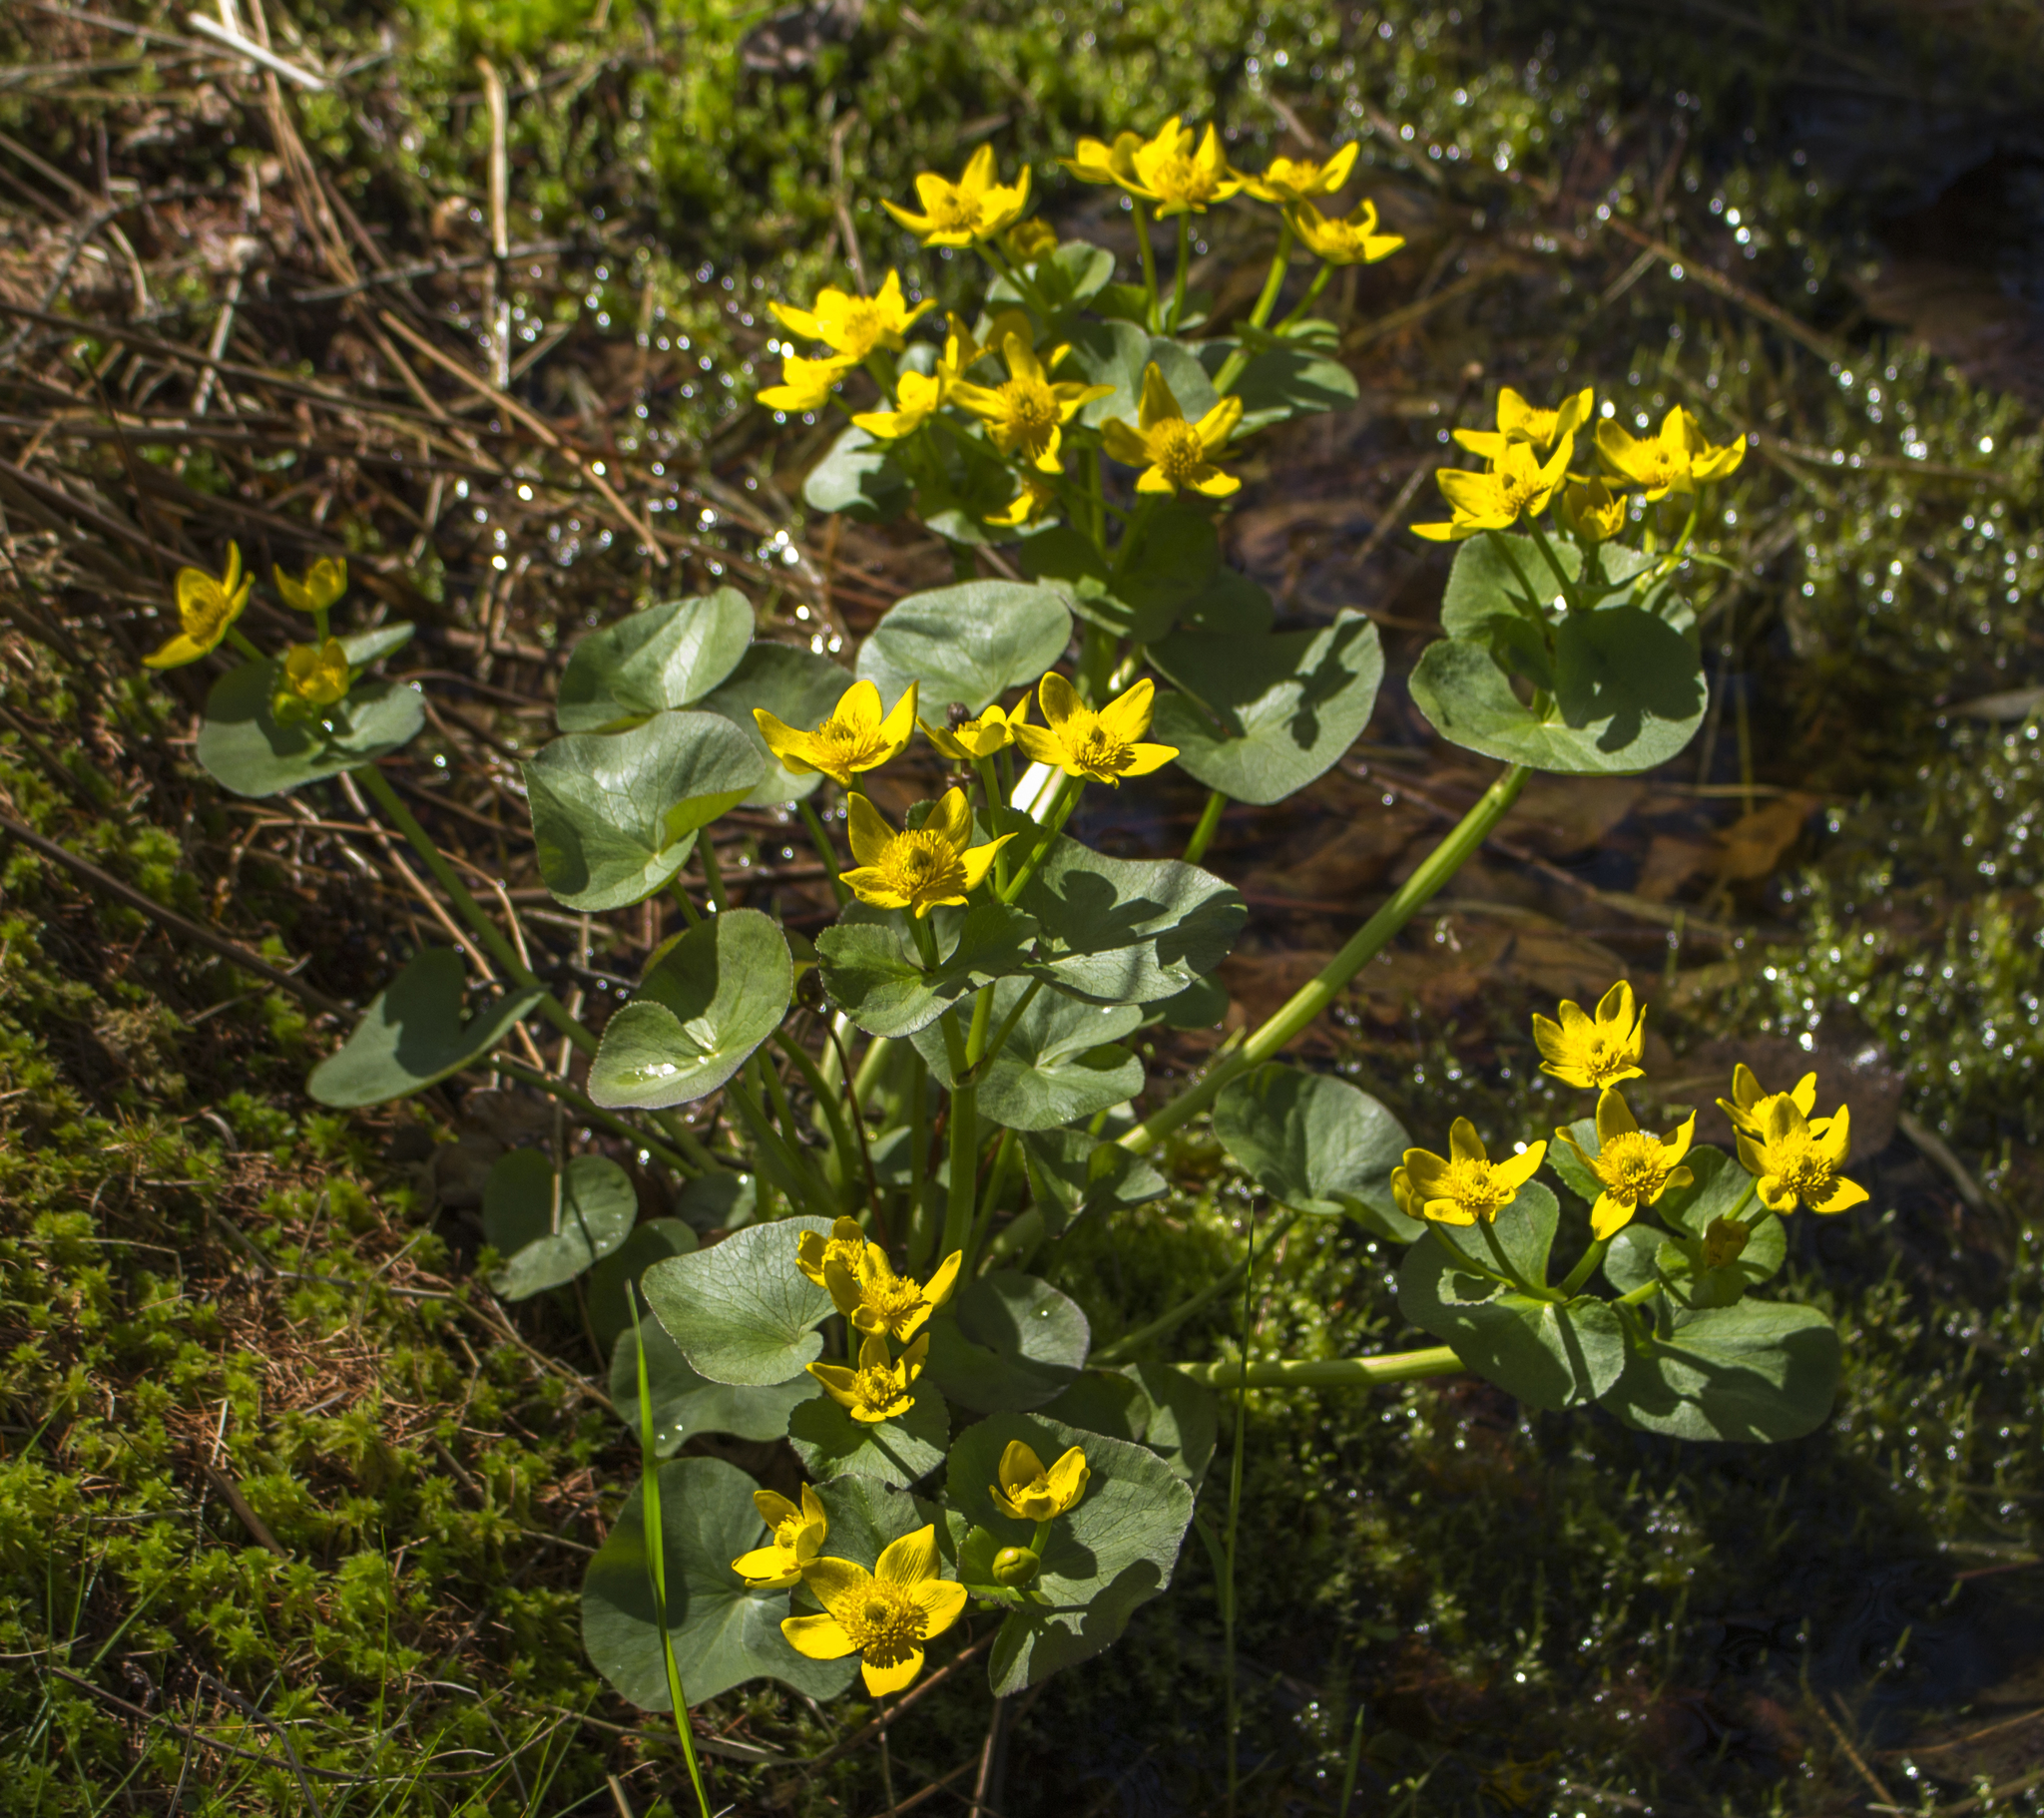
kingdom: Plantae
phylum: Tracheophyta
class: Magnoliopsida
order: Ranunculales
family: Ranunculaceae
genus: Caltha
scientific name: Caltha palustris
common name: Marsh marigold
